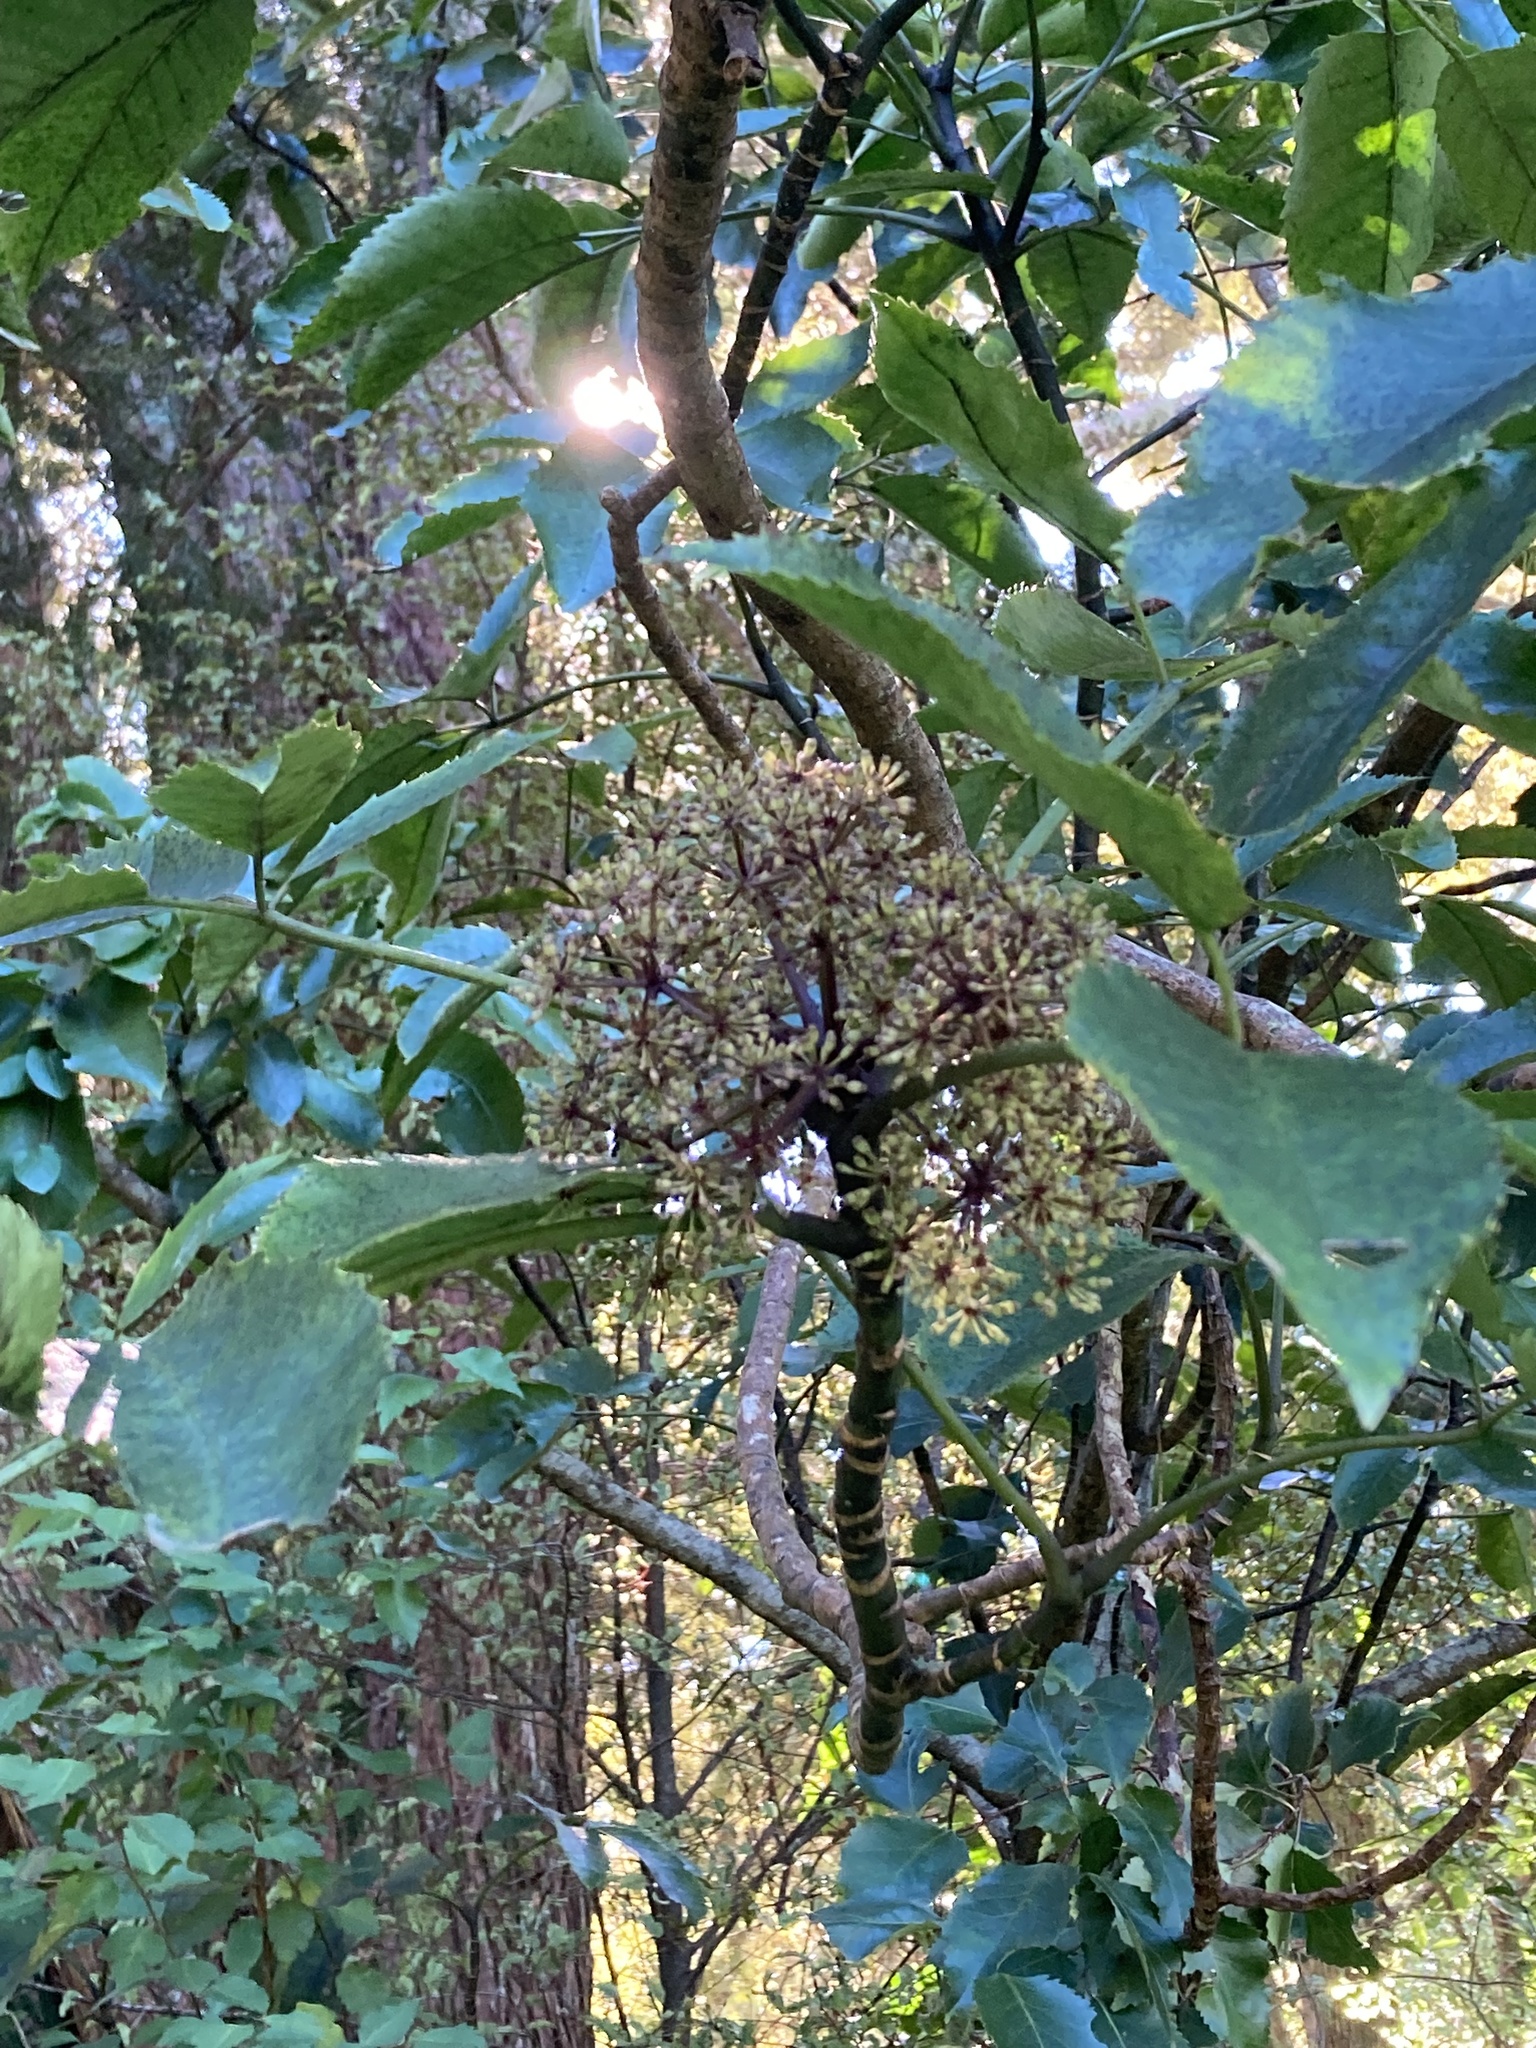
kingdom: Plantae
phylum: Tracheophyta
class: Magnoliopsida
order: Apiales
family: Araliaceae
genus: Neopanax
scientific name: Neopanax arboreus
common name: Five-fingers
